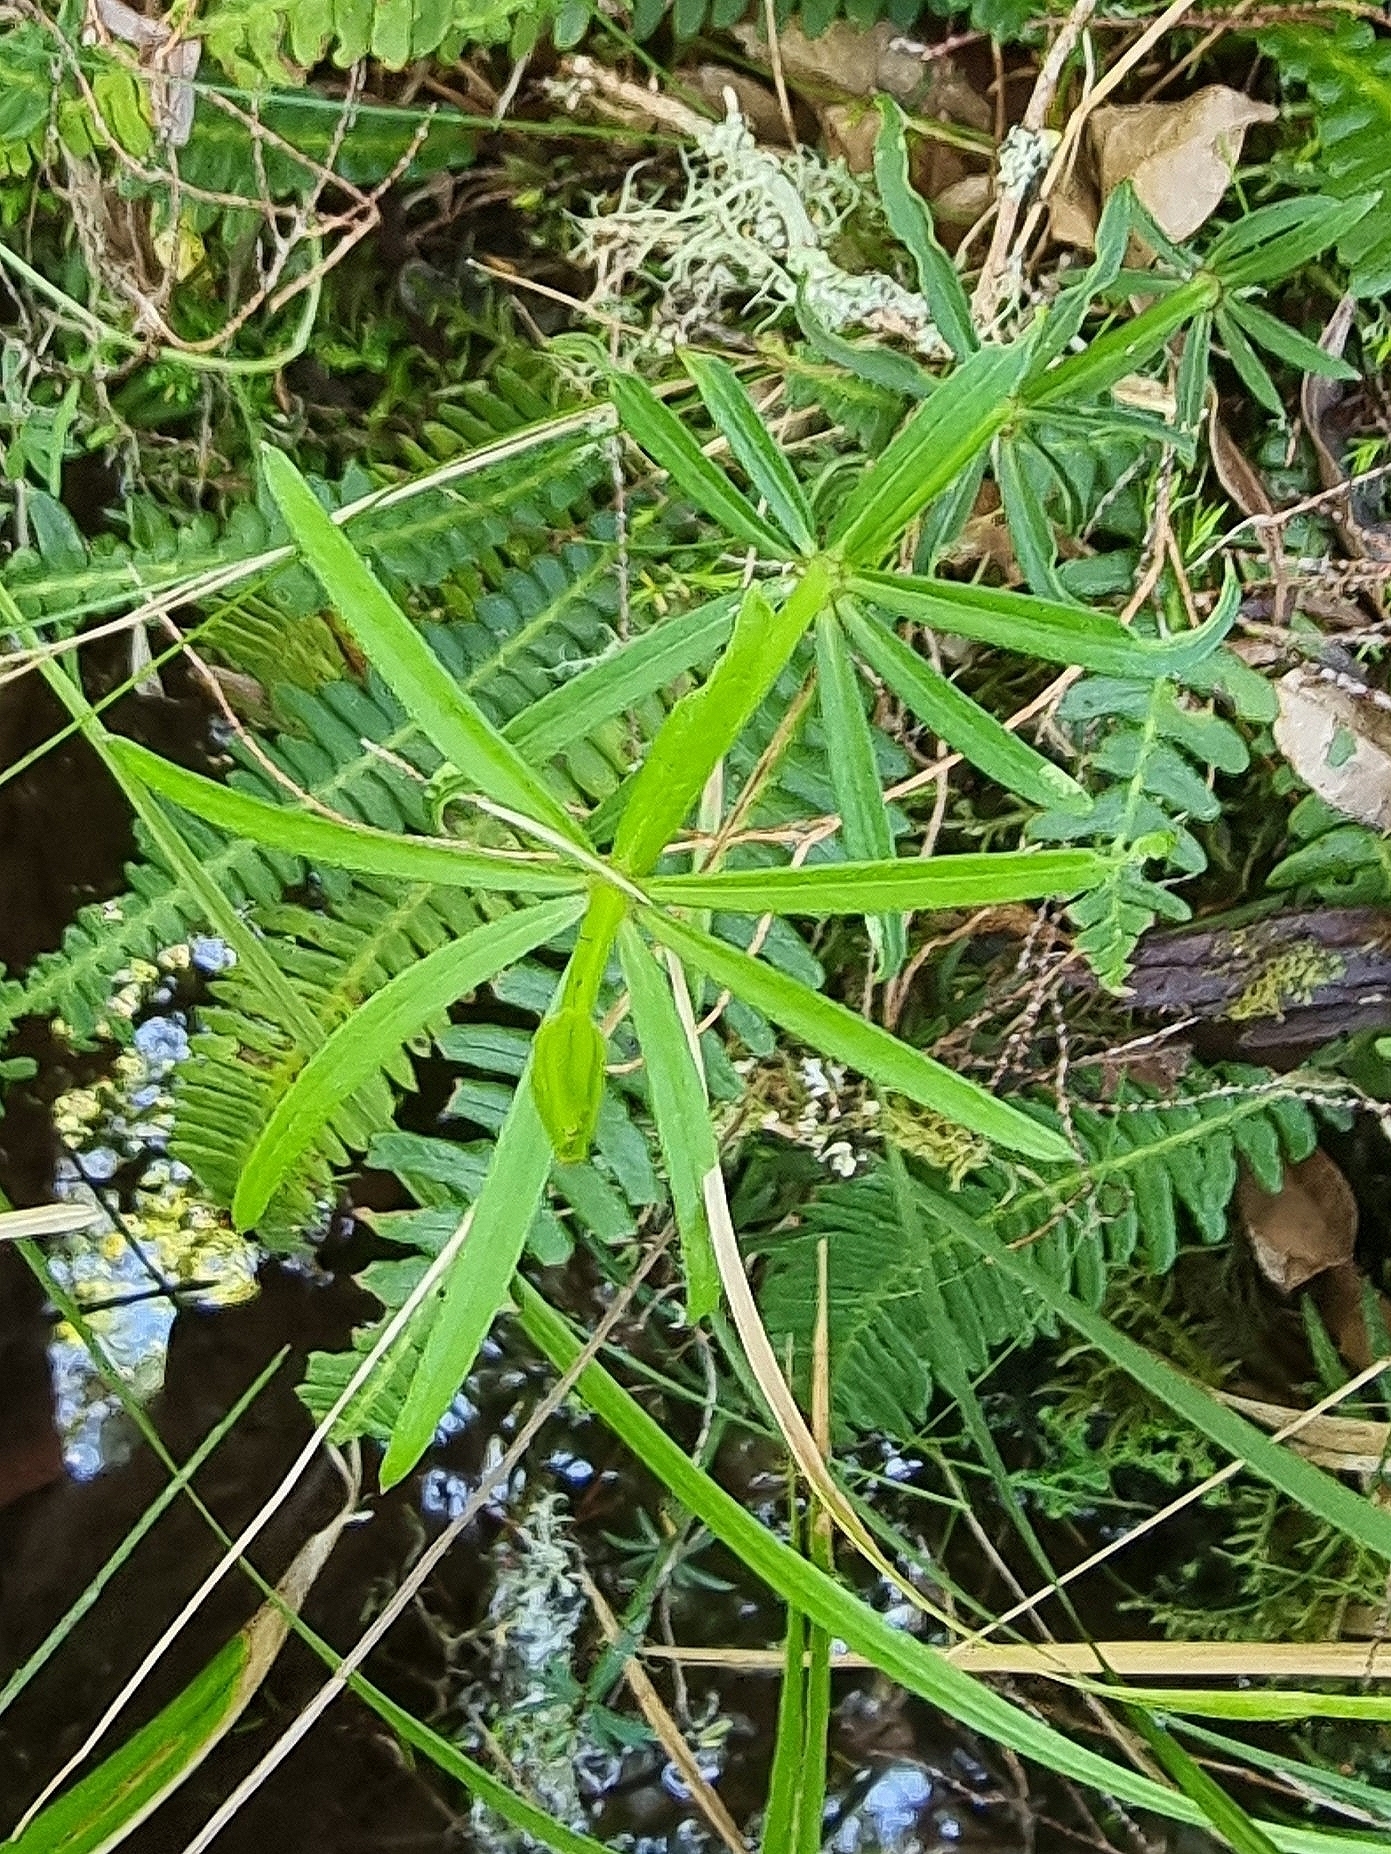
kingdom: Plantae
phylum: Tracheophyta
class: Magnoliopsida
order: Gentianales
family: Rubiaceae
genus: Rubia
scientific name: Rubia occidens
